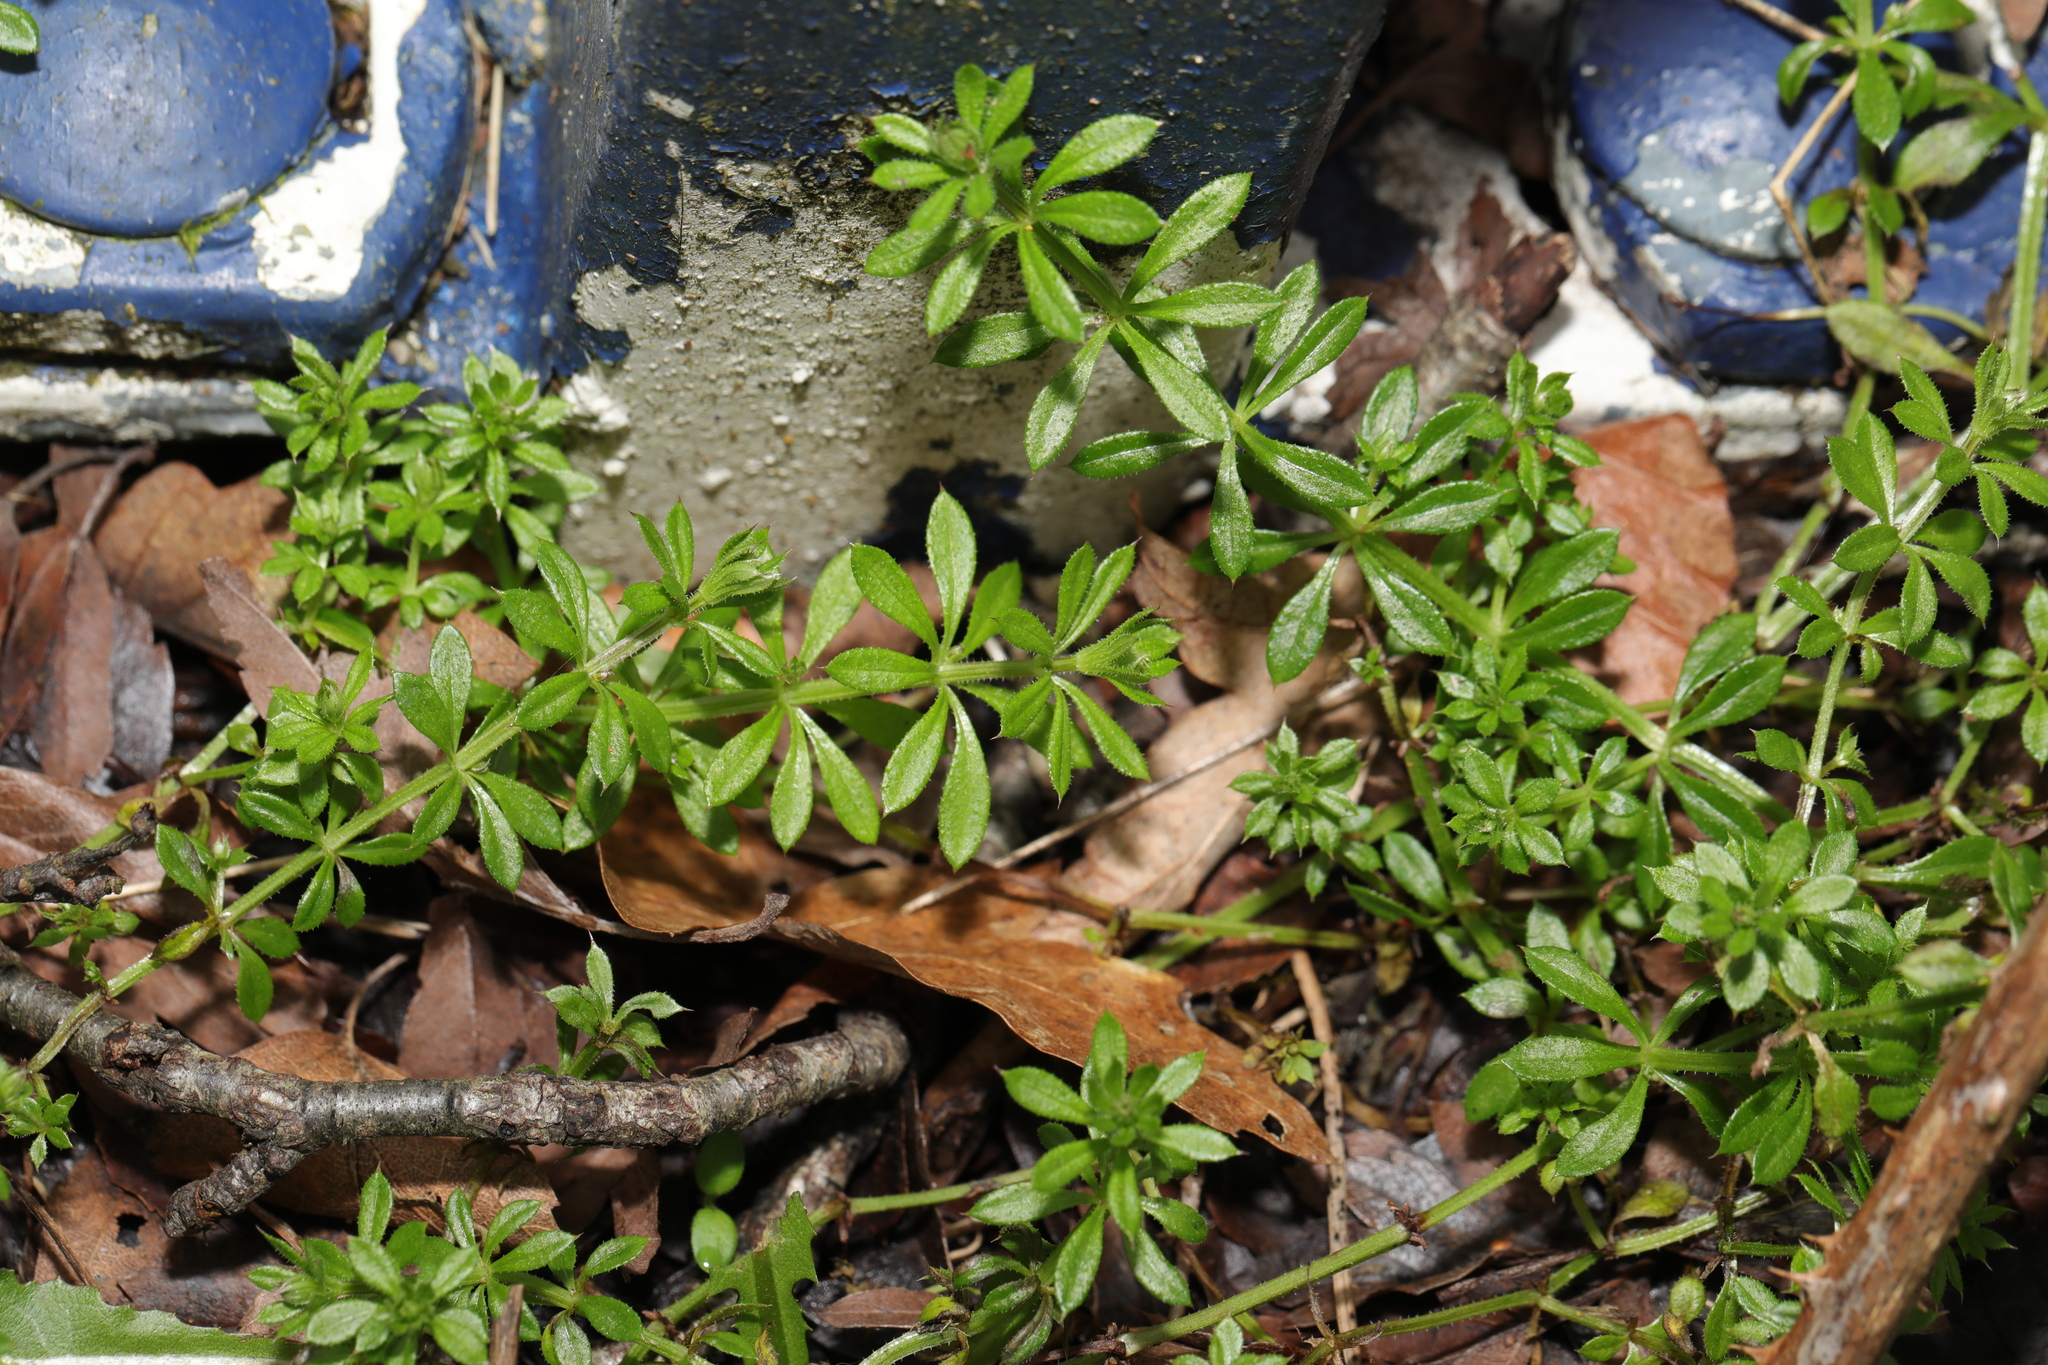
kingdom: Plantae
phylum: Tracheophyta
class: Magnoliopsida
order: Gentianales
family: Rubiaceae
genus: Galium
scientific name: Galium aparine
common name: Cleavers
